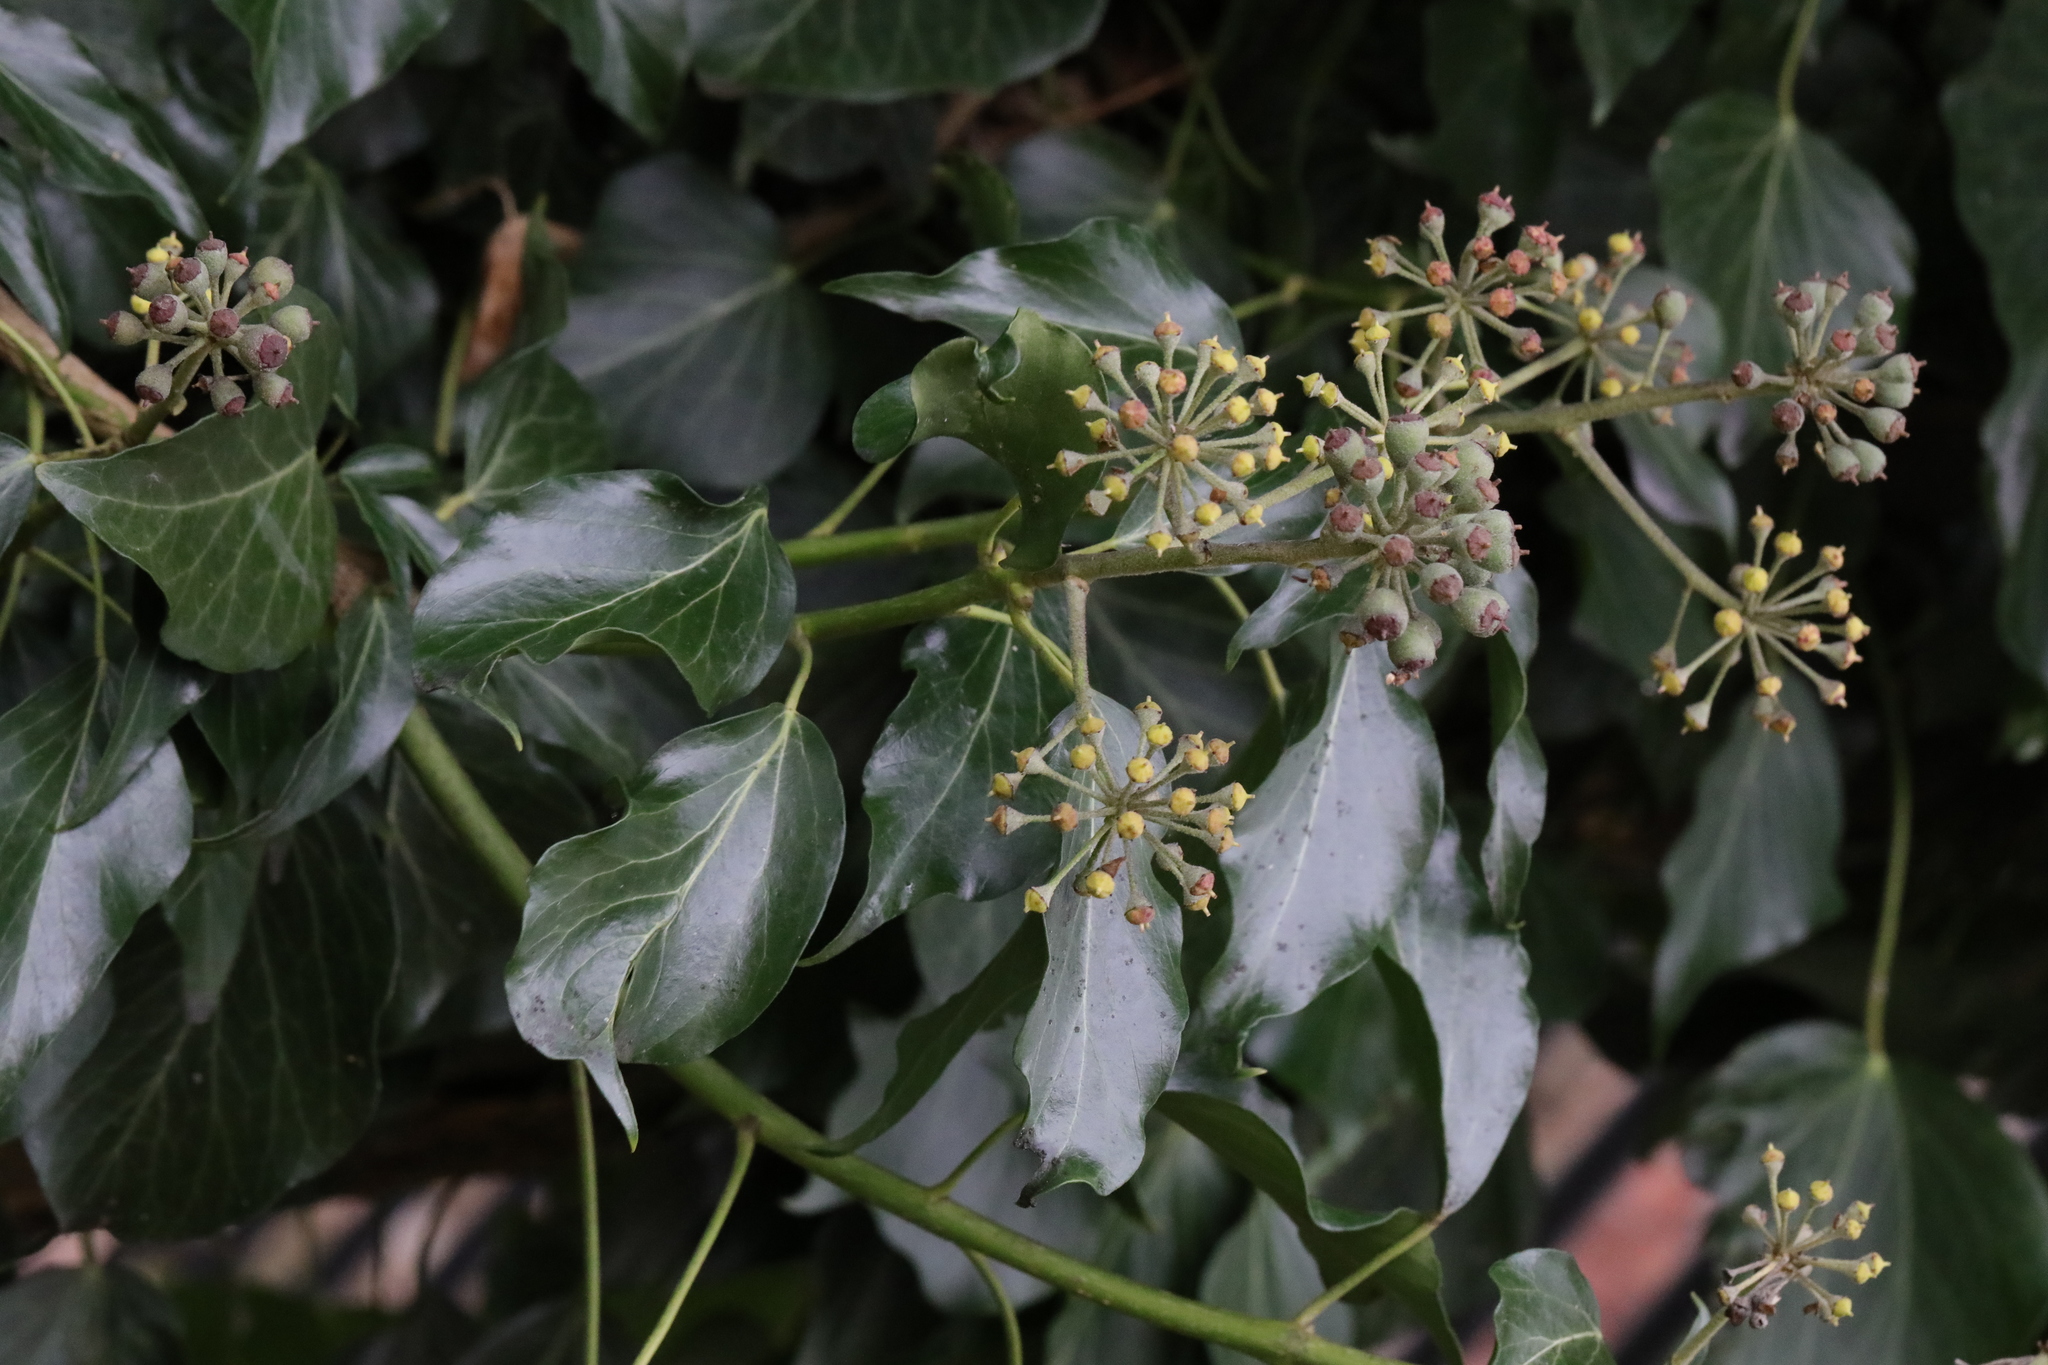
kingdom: Plantae
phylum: Tracheophyta
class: Magnoliopsida
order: Apiales
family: Araliaceae
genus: Hedera
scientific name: Hedera helix
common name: Ivy
